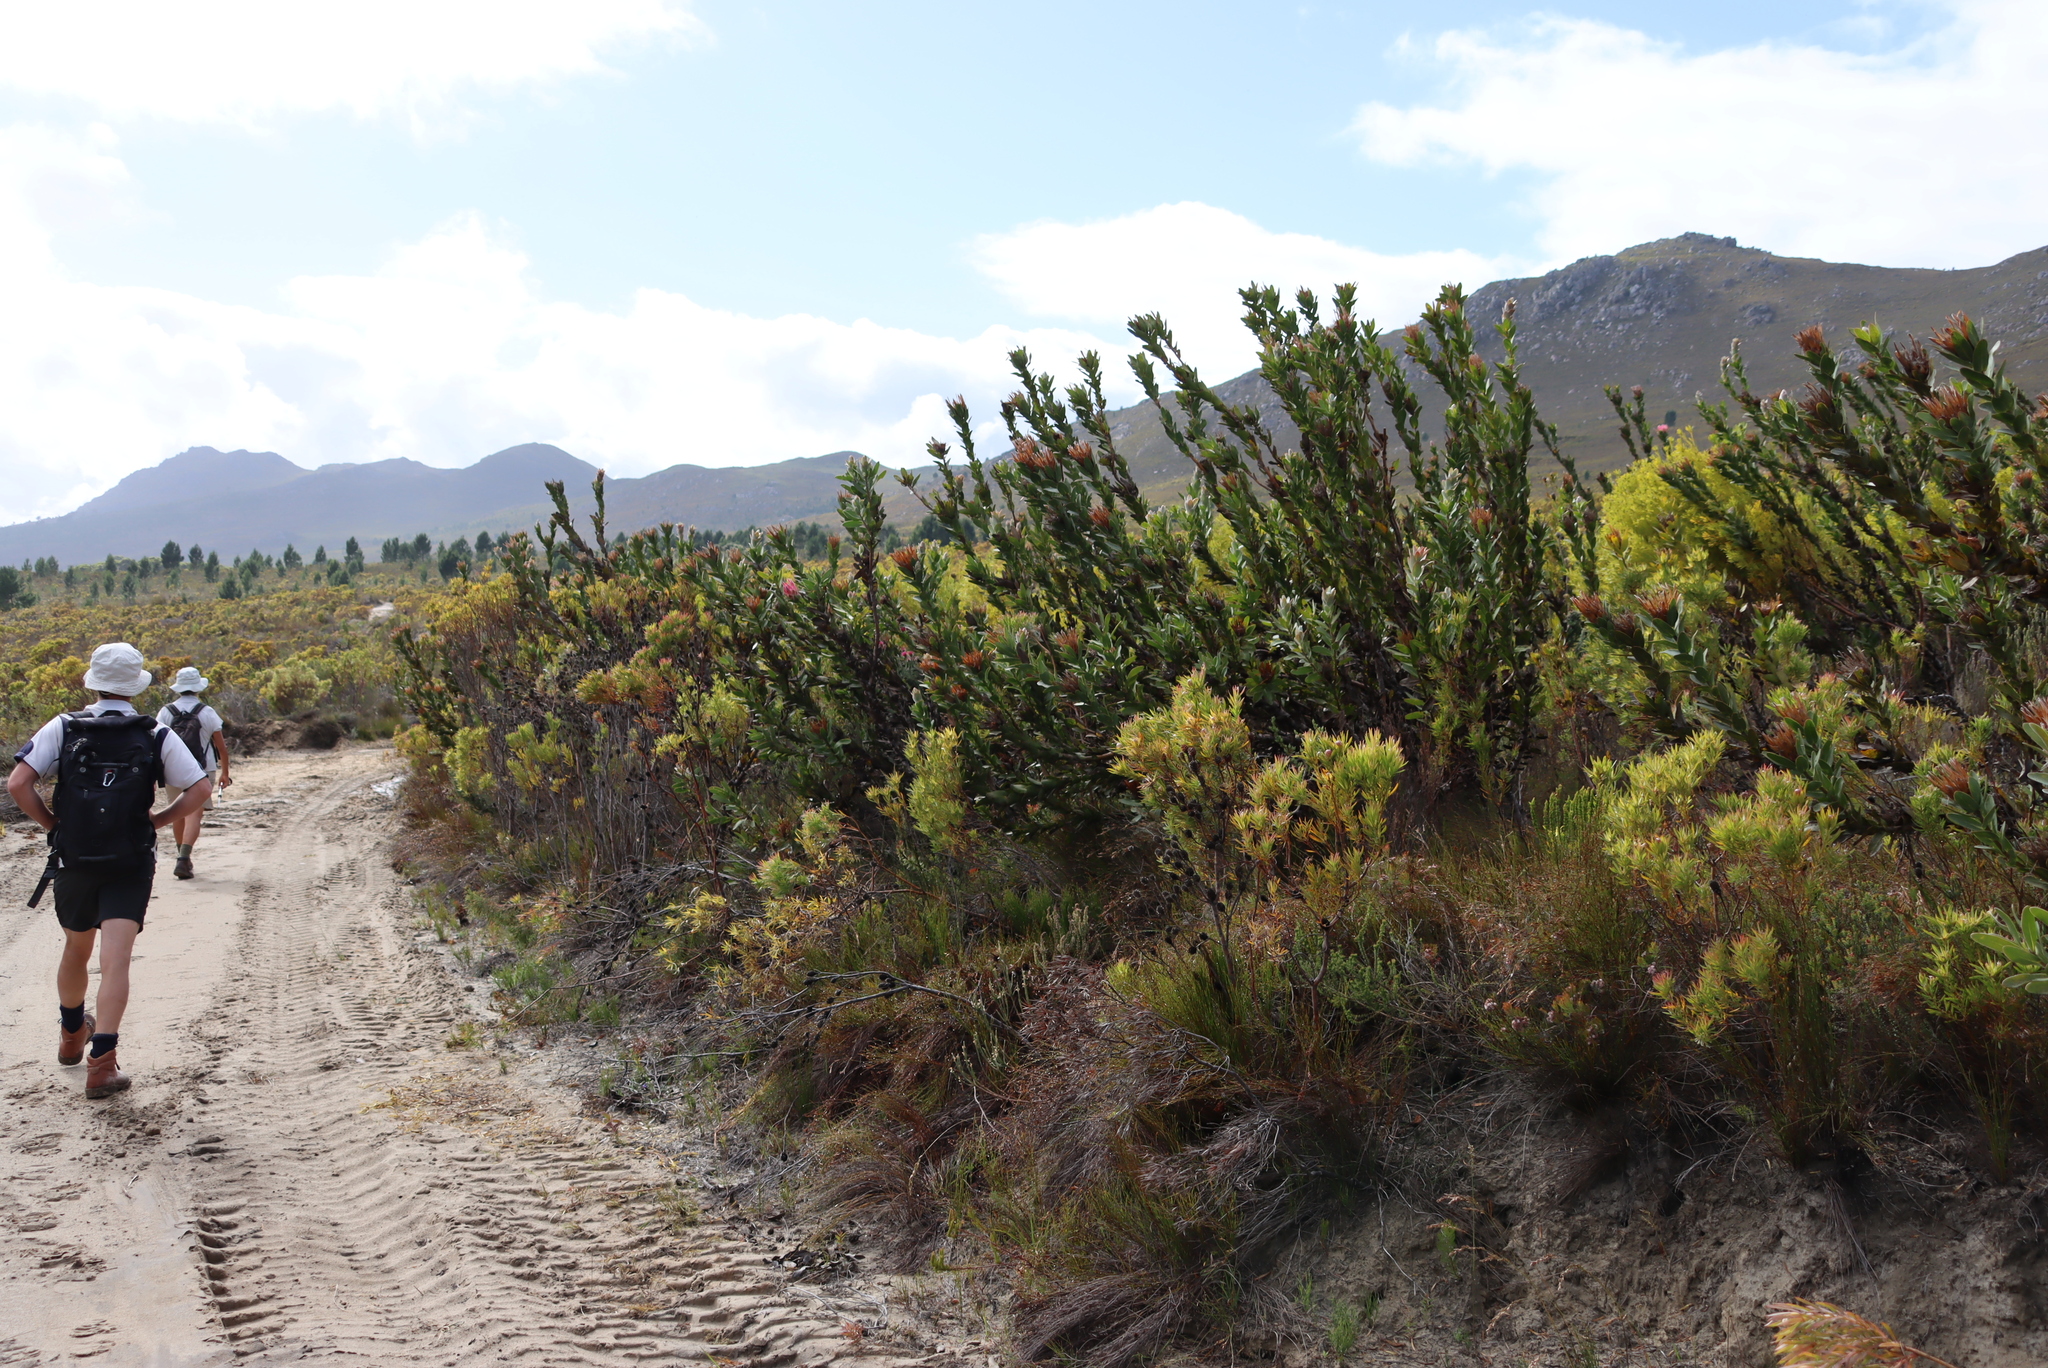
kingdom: Plantae
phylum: Tracheophyta
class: Magnoliopsida
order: Proteales
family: Proteaceae
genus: Protea
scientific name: Protea compacta
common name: Bot river protea
